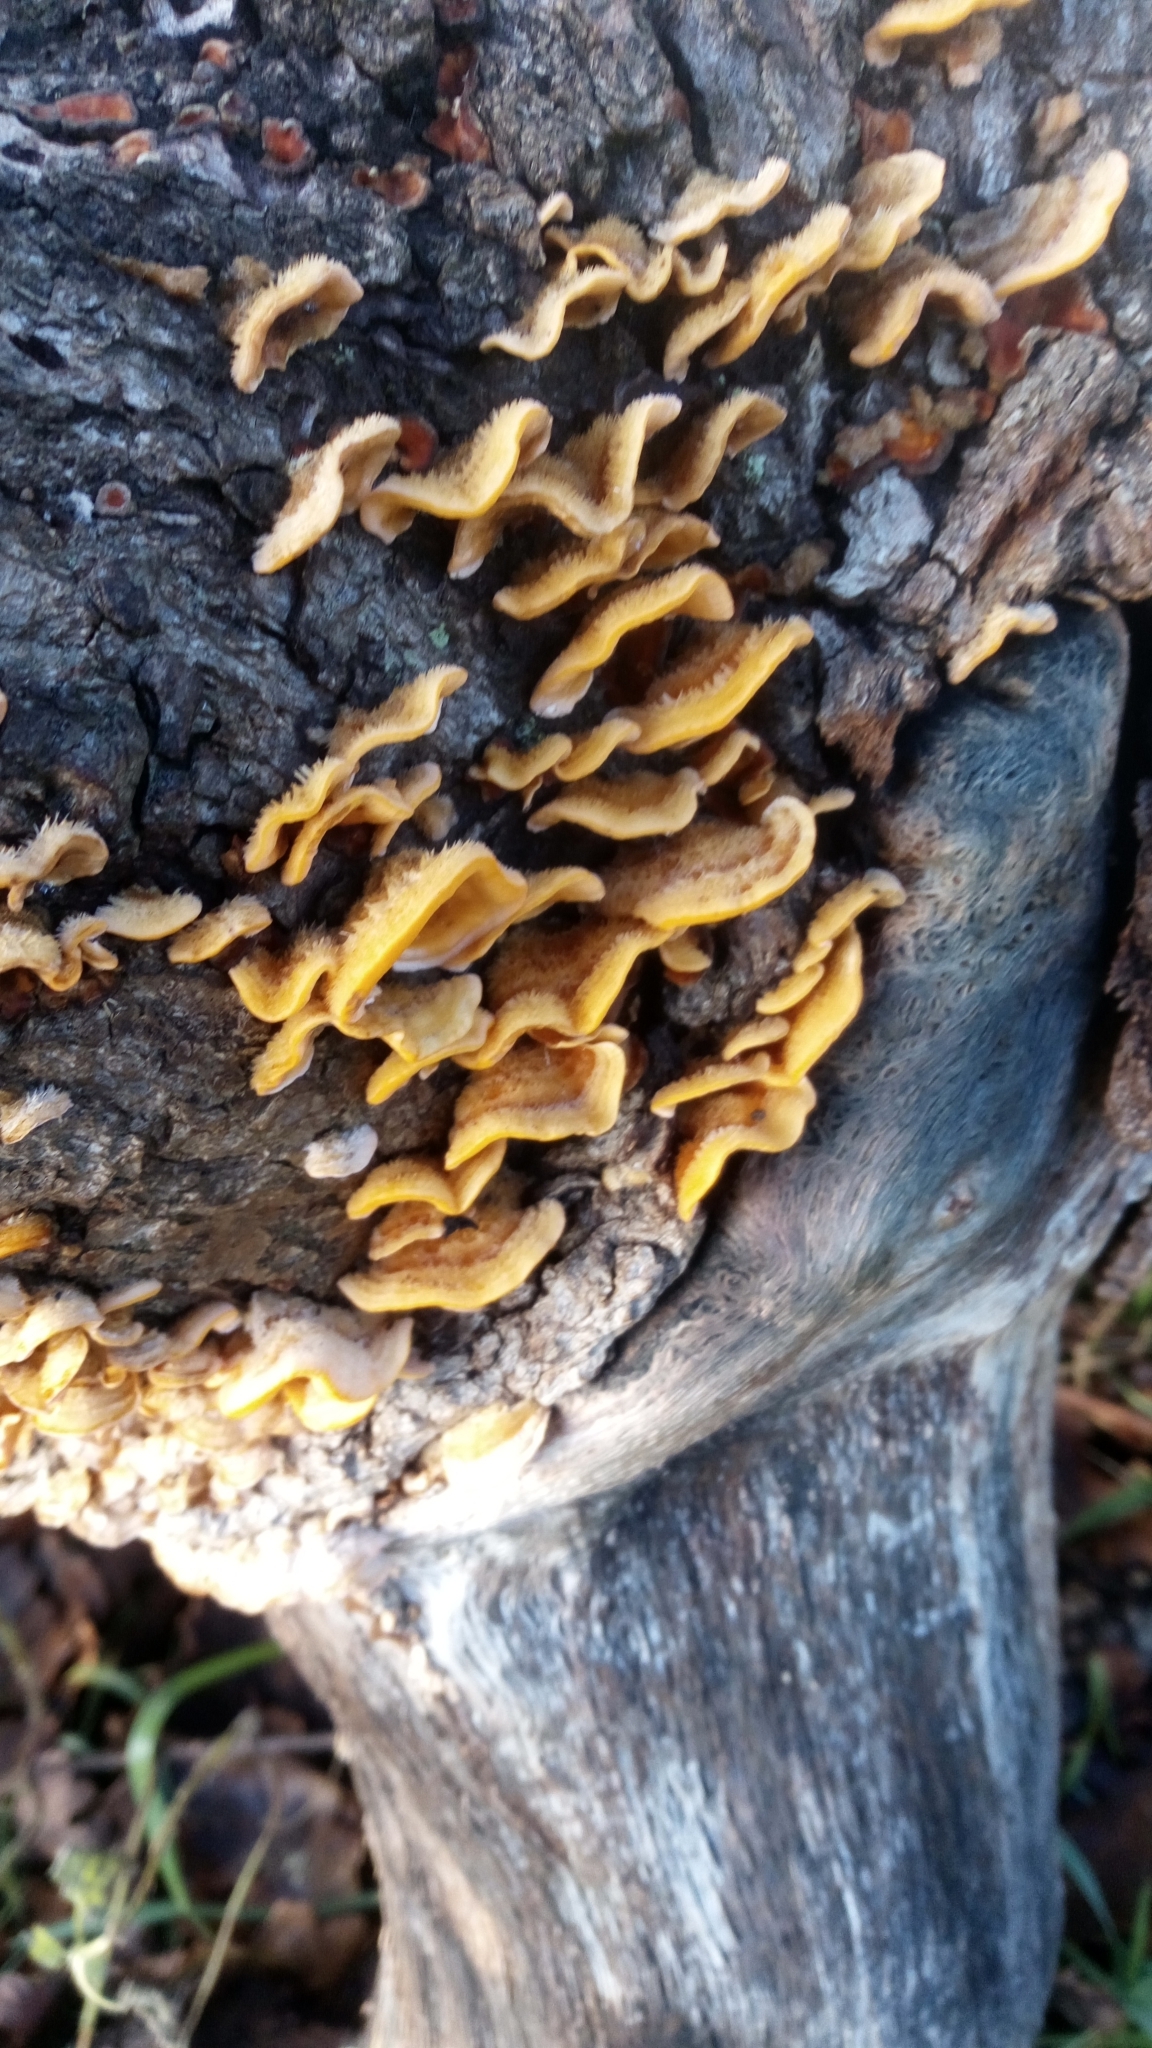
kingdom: Fungi
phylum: Basidiomycota
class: Agaricomycetes
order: Russulales
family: Stereaceae
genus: Stereum
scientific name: Stereum hirsutum
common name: Hairy curtain crust
